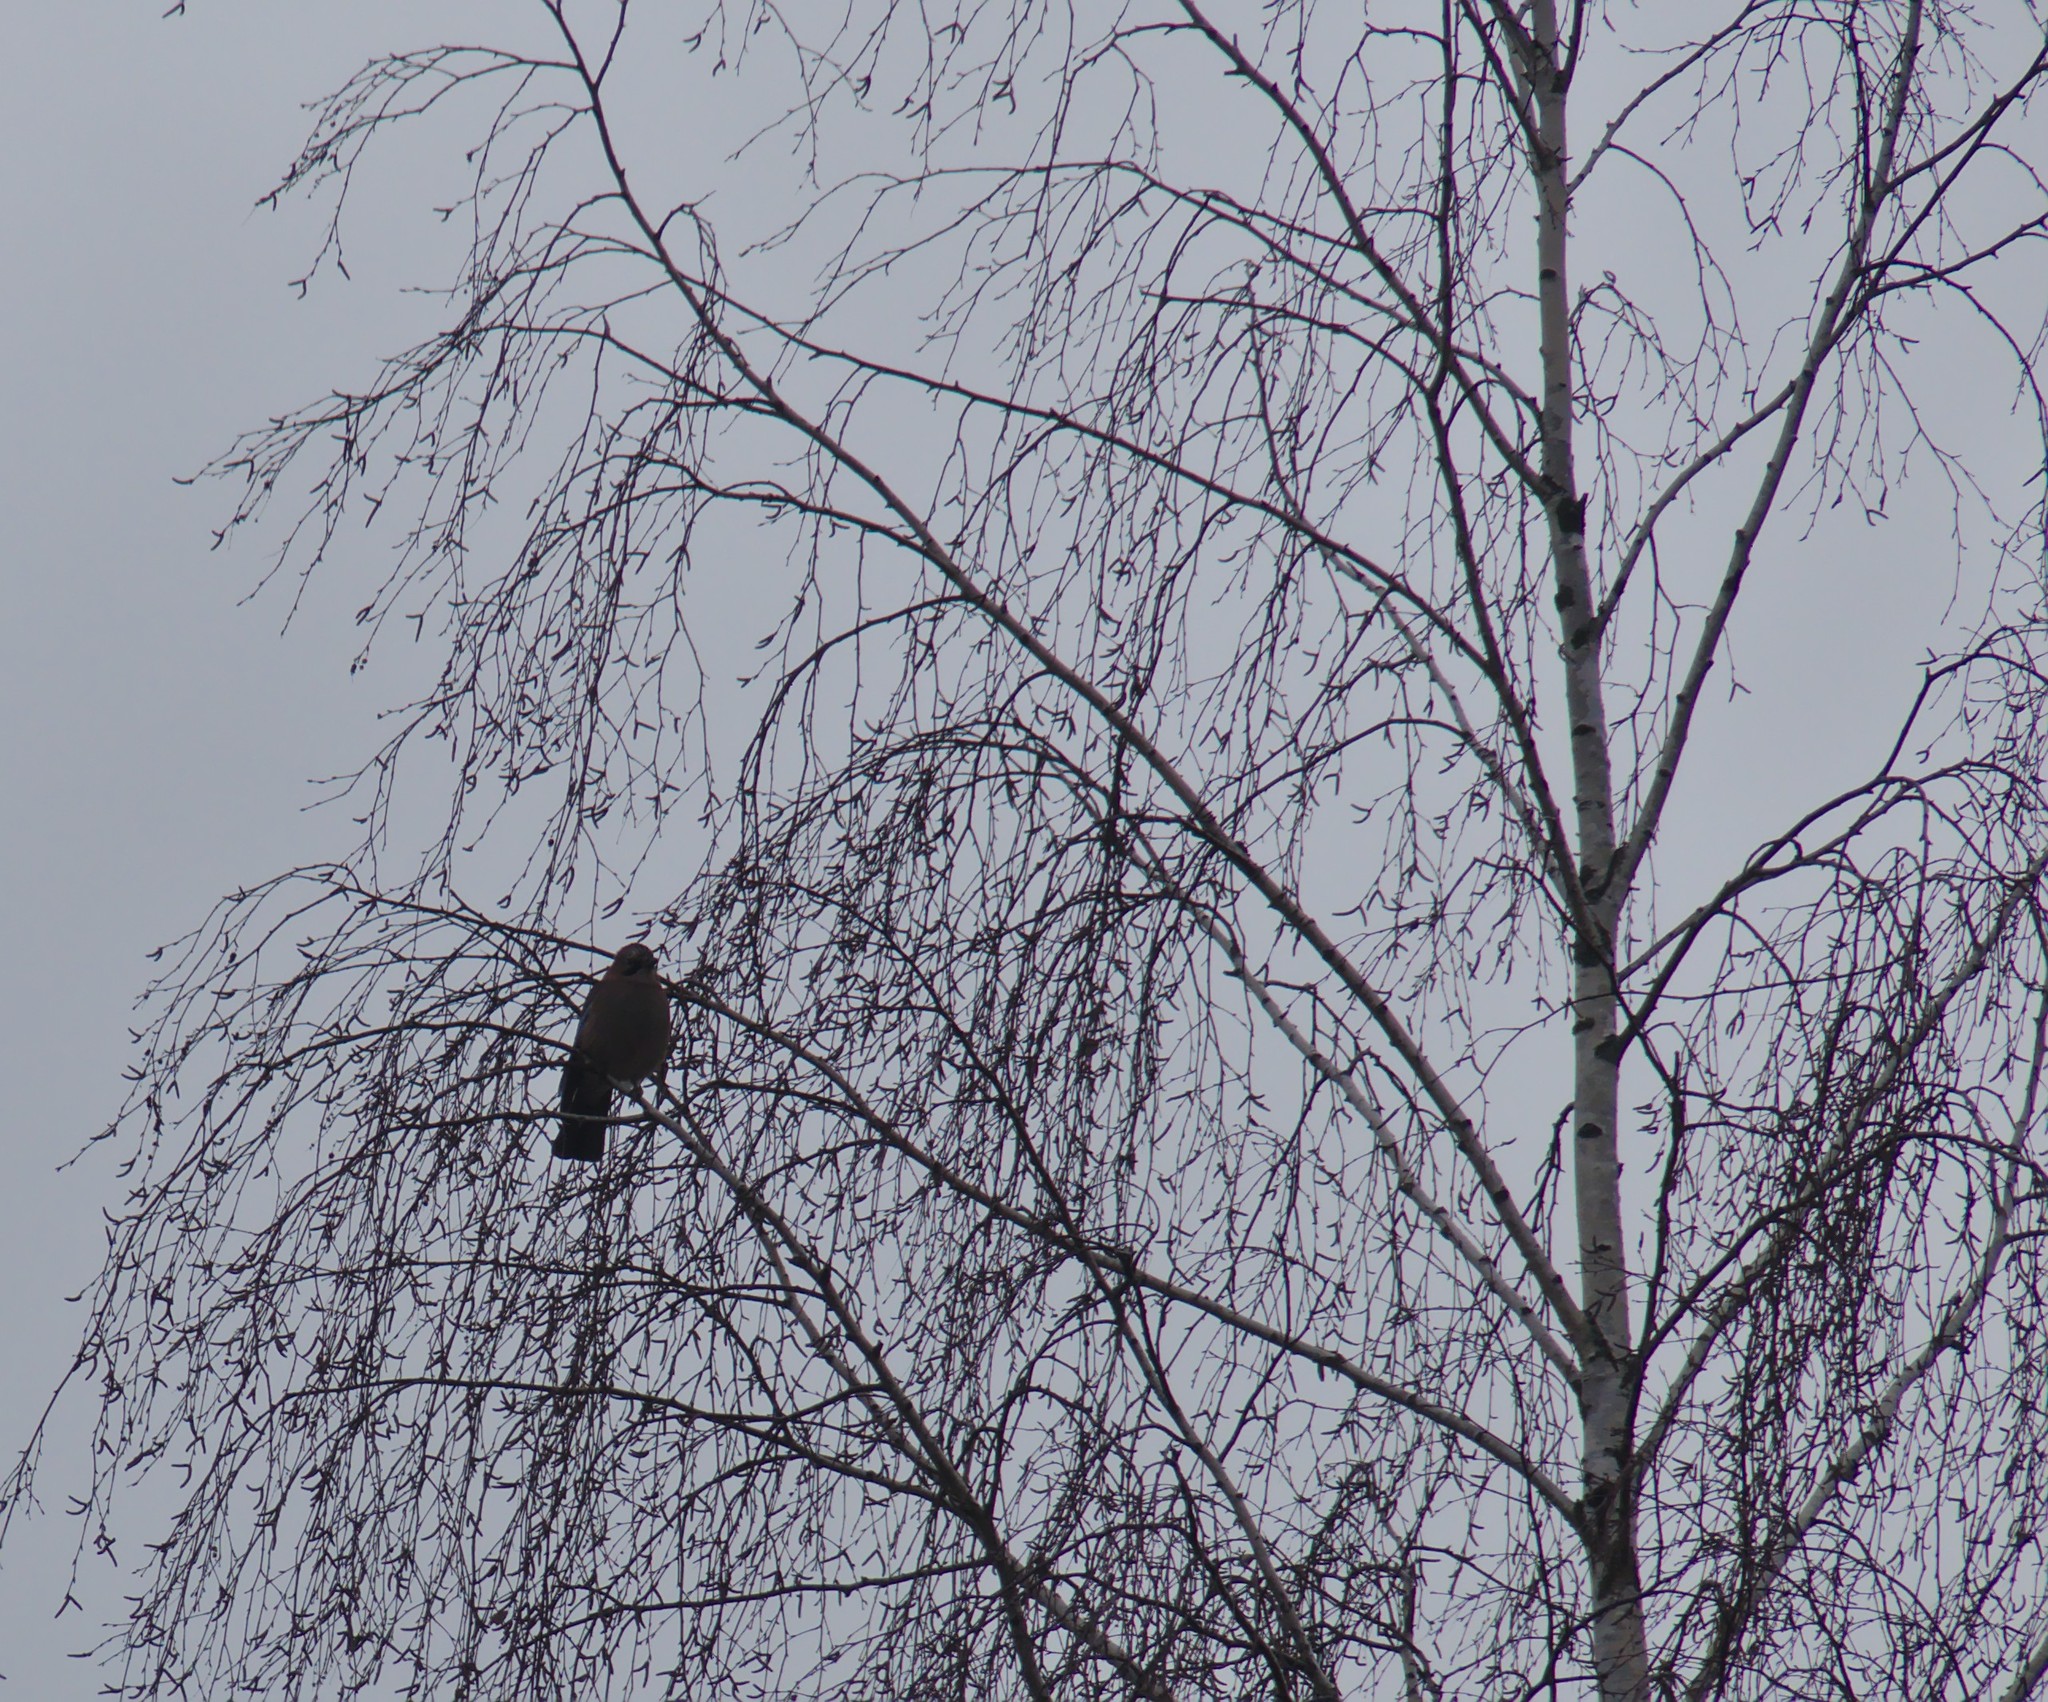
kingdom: Animalia
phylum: Chordata
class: Aves
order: Passeriformes
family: Corvidae
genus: Garrulus
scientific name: Garrulus glandarius
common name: Eurasian jay
